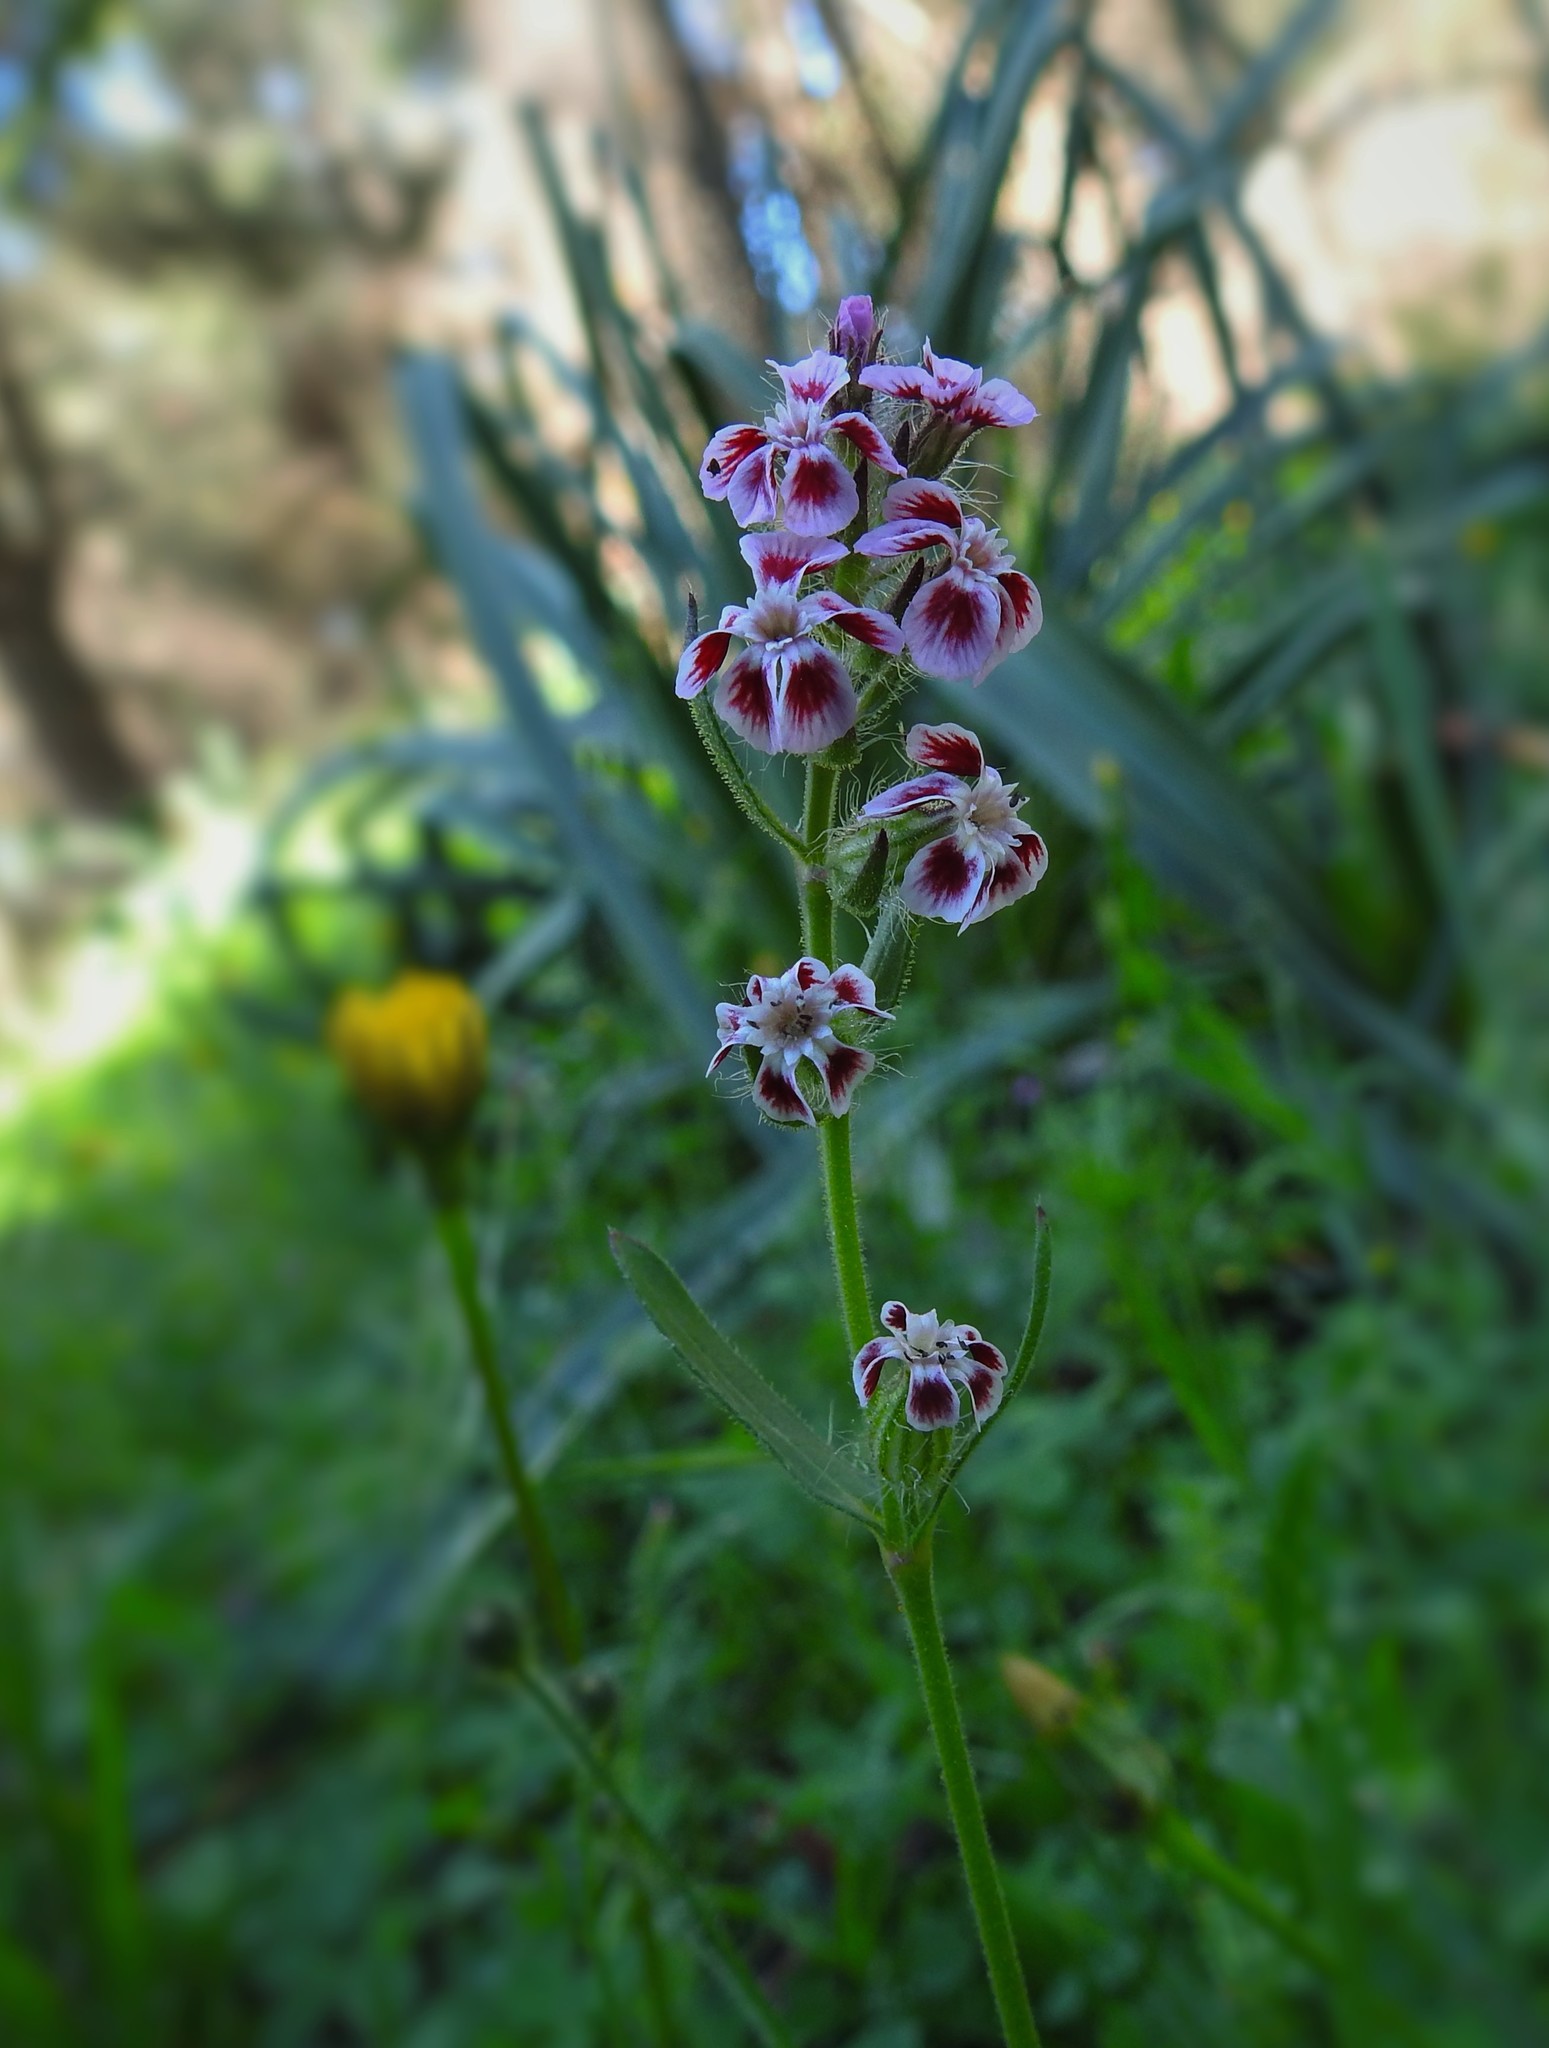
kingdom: Plantae
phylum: Tracheophyta
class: Magnoliopsida
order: Caryophyllales
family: Caryophyllaceae
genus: Silene
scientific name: Silene gallica
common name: Small-flowered catchfly
